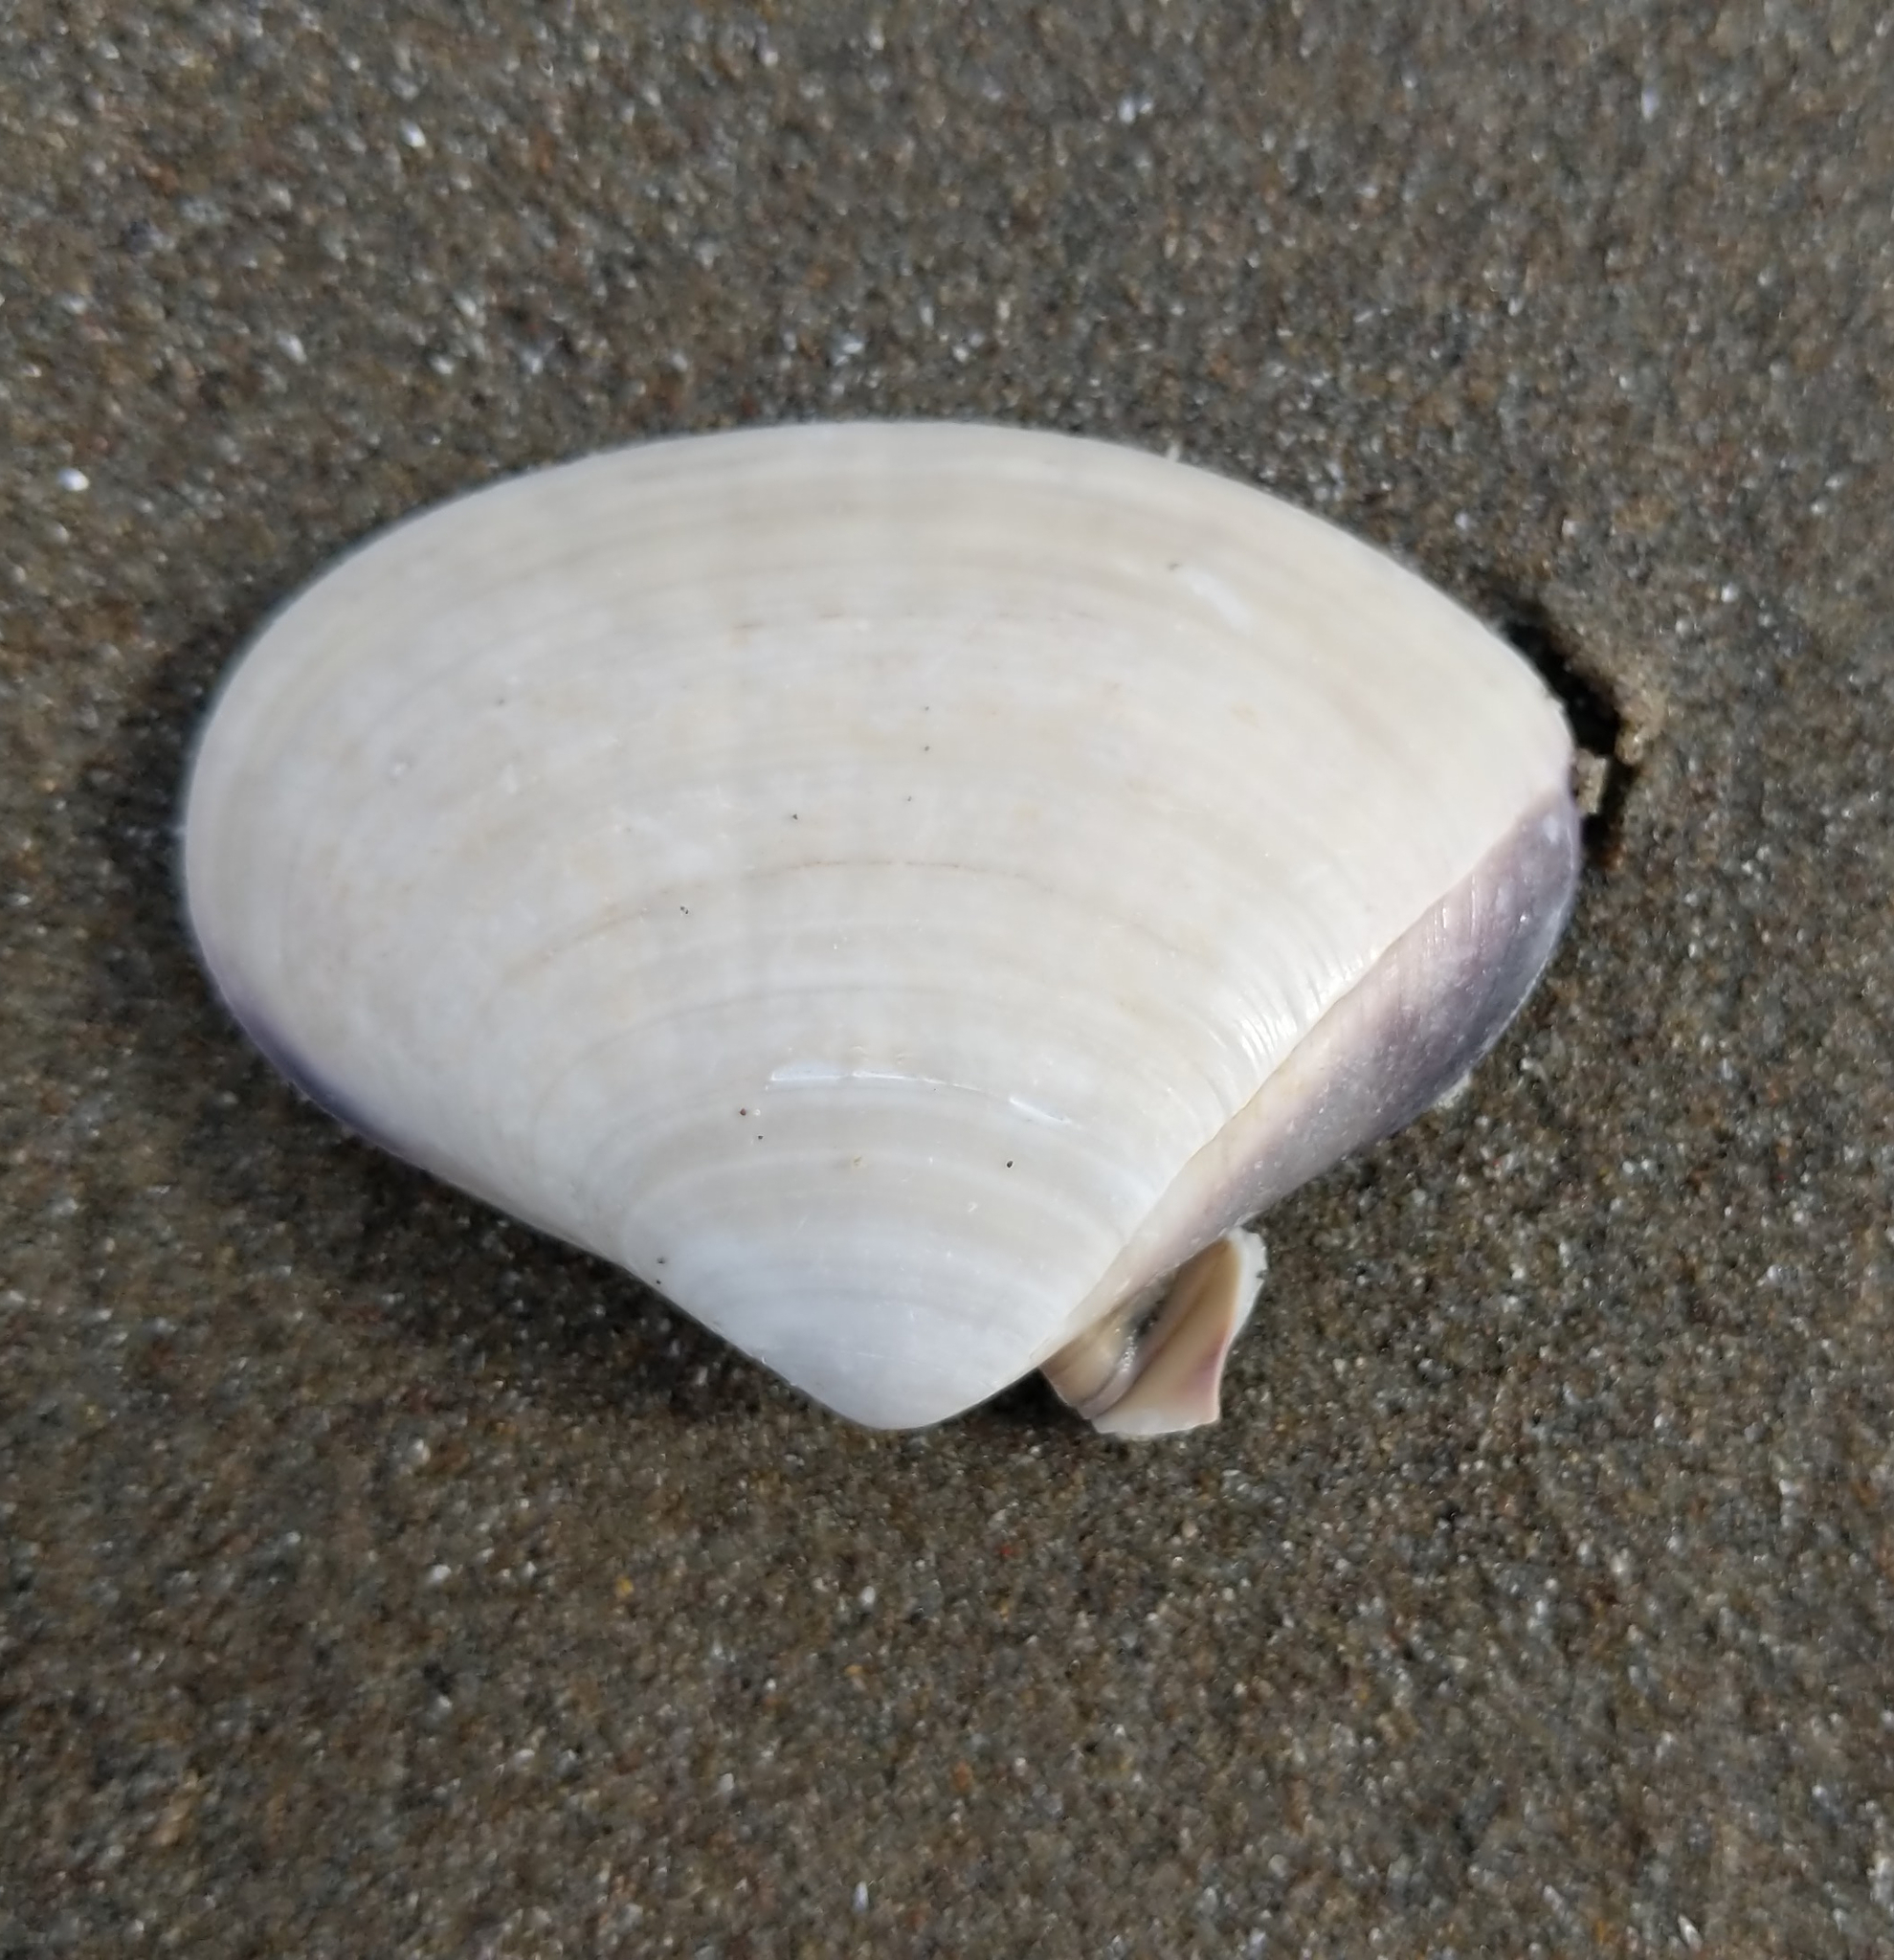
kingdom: Animalia
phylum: Mollusca
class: Bivalvia
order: Venerida
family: Veneridae
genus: Tivela
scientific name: Tivela stultorum
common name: Pismo clam
